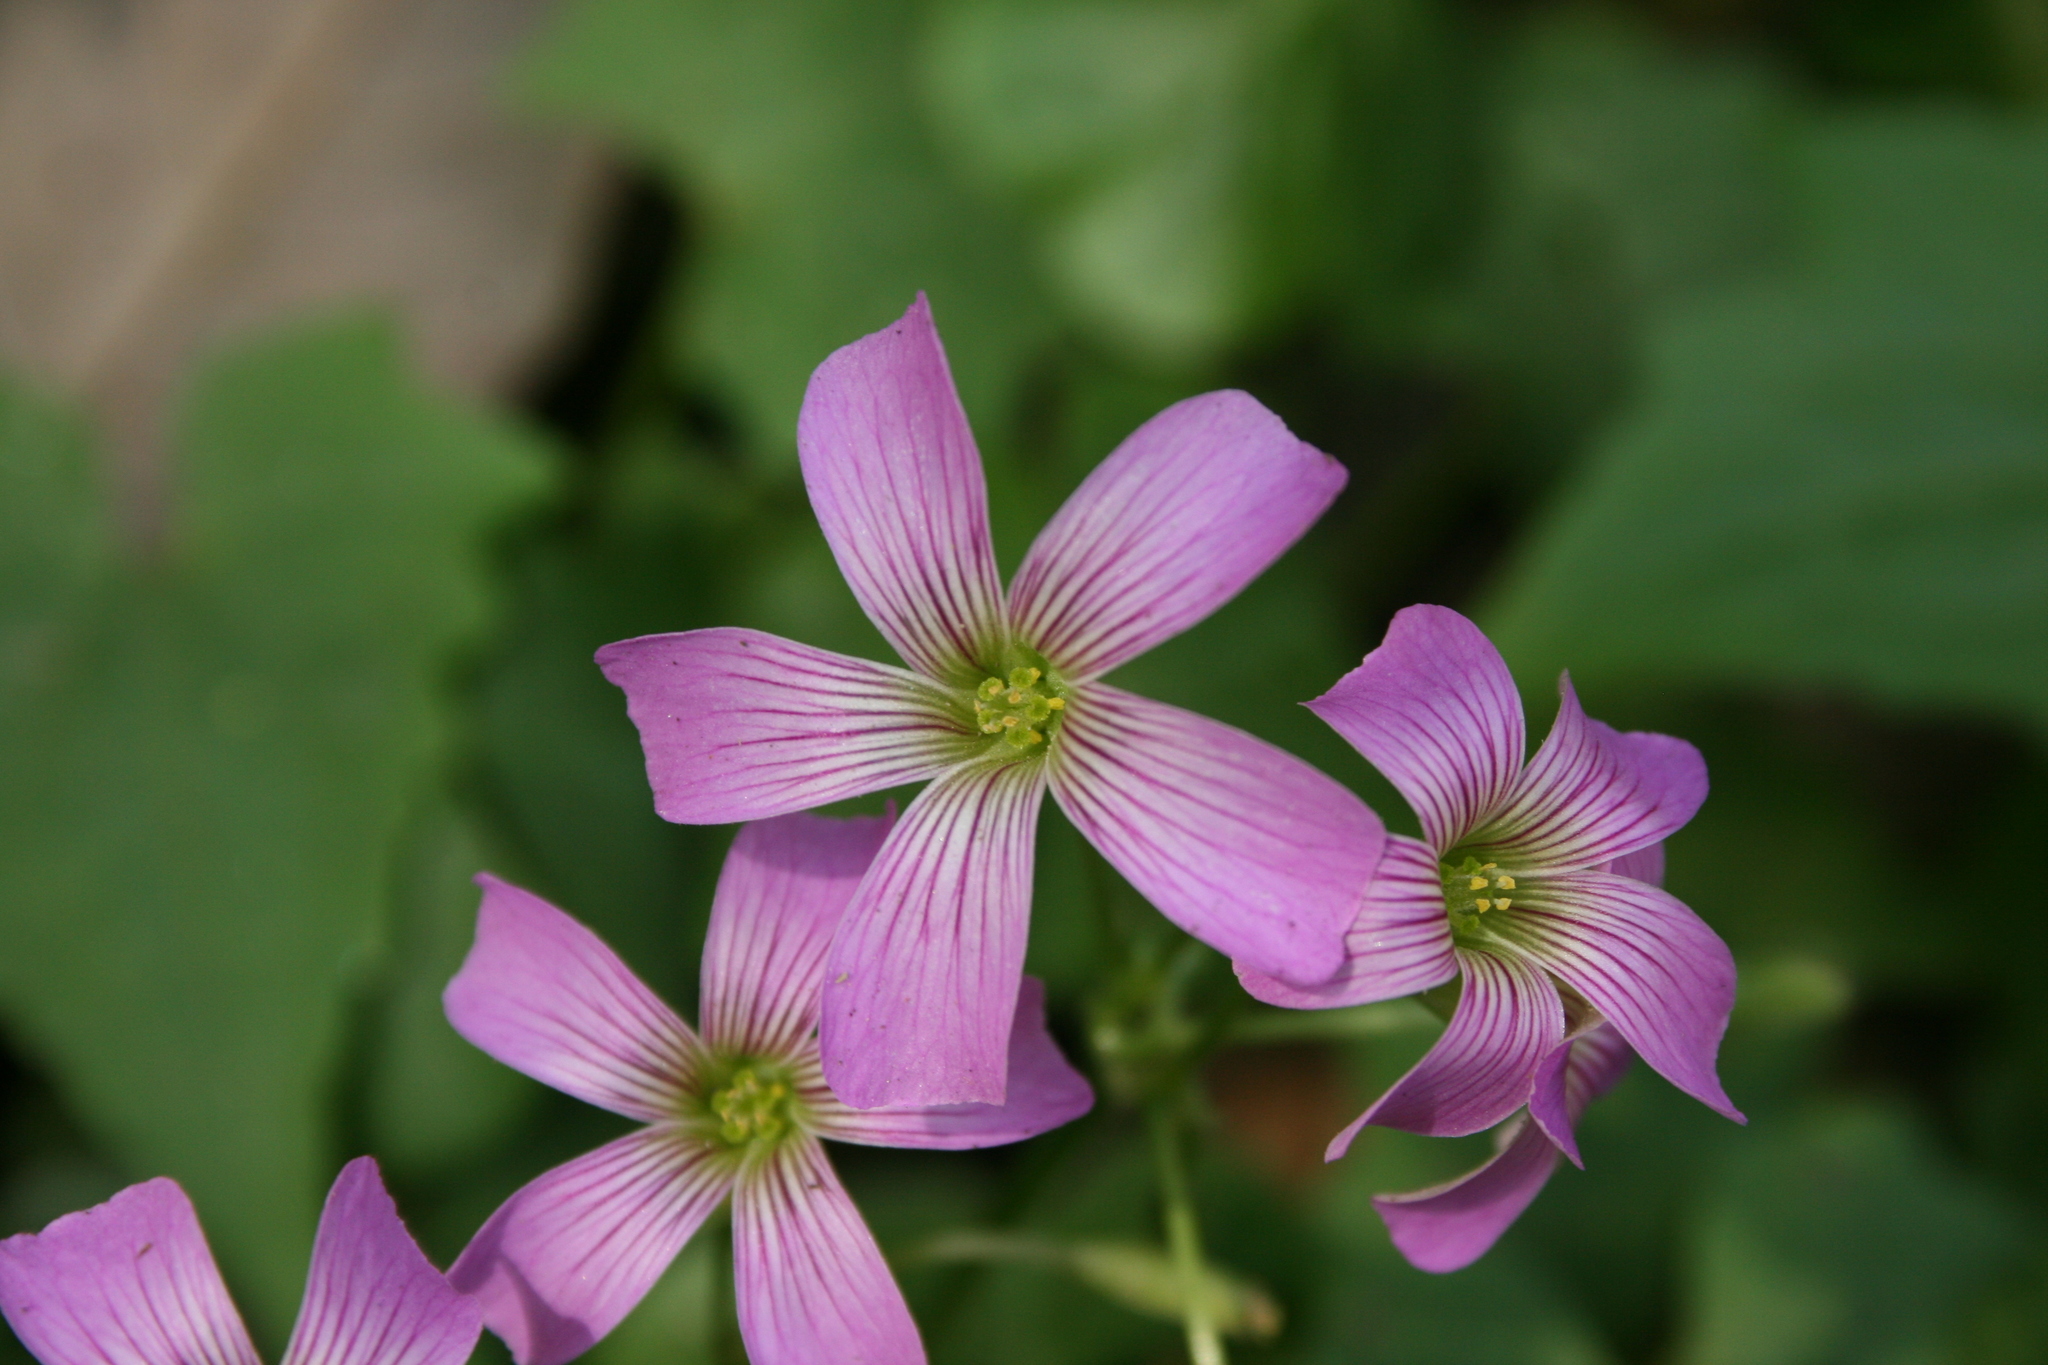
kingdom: Plantae
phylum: Tracheophyta
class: Magnoliopsida
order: Oxalidales
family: Oxalidaceae
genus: Oxalis
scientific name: Oxalis debilis
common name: Large-flowered pink-sorrel
